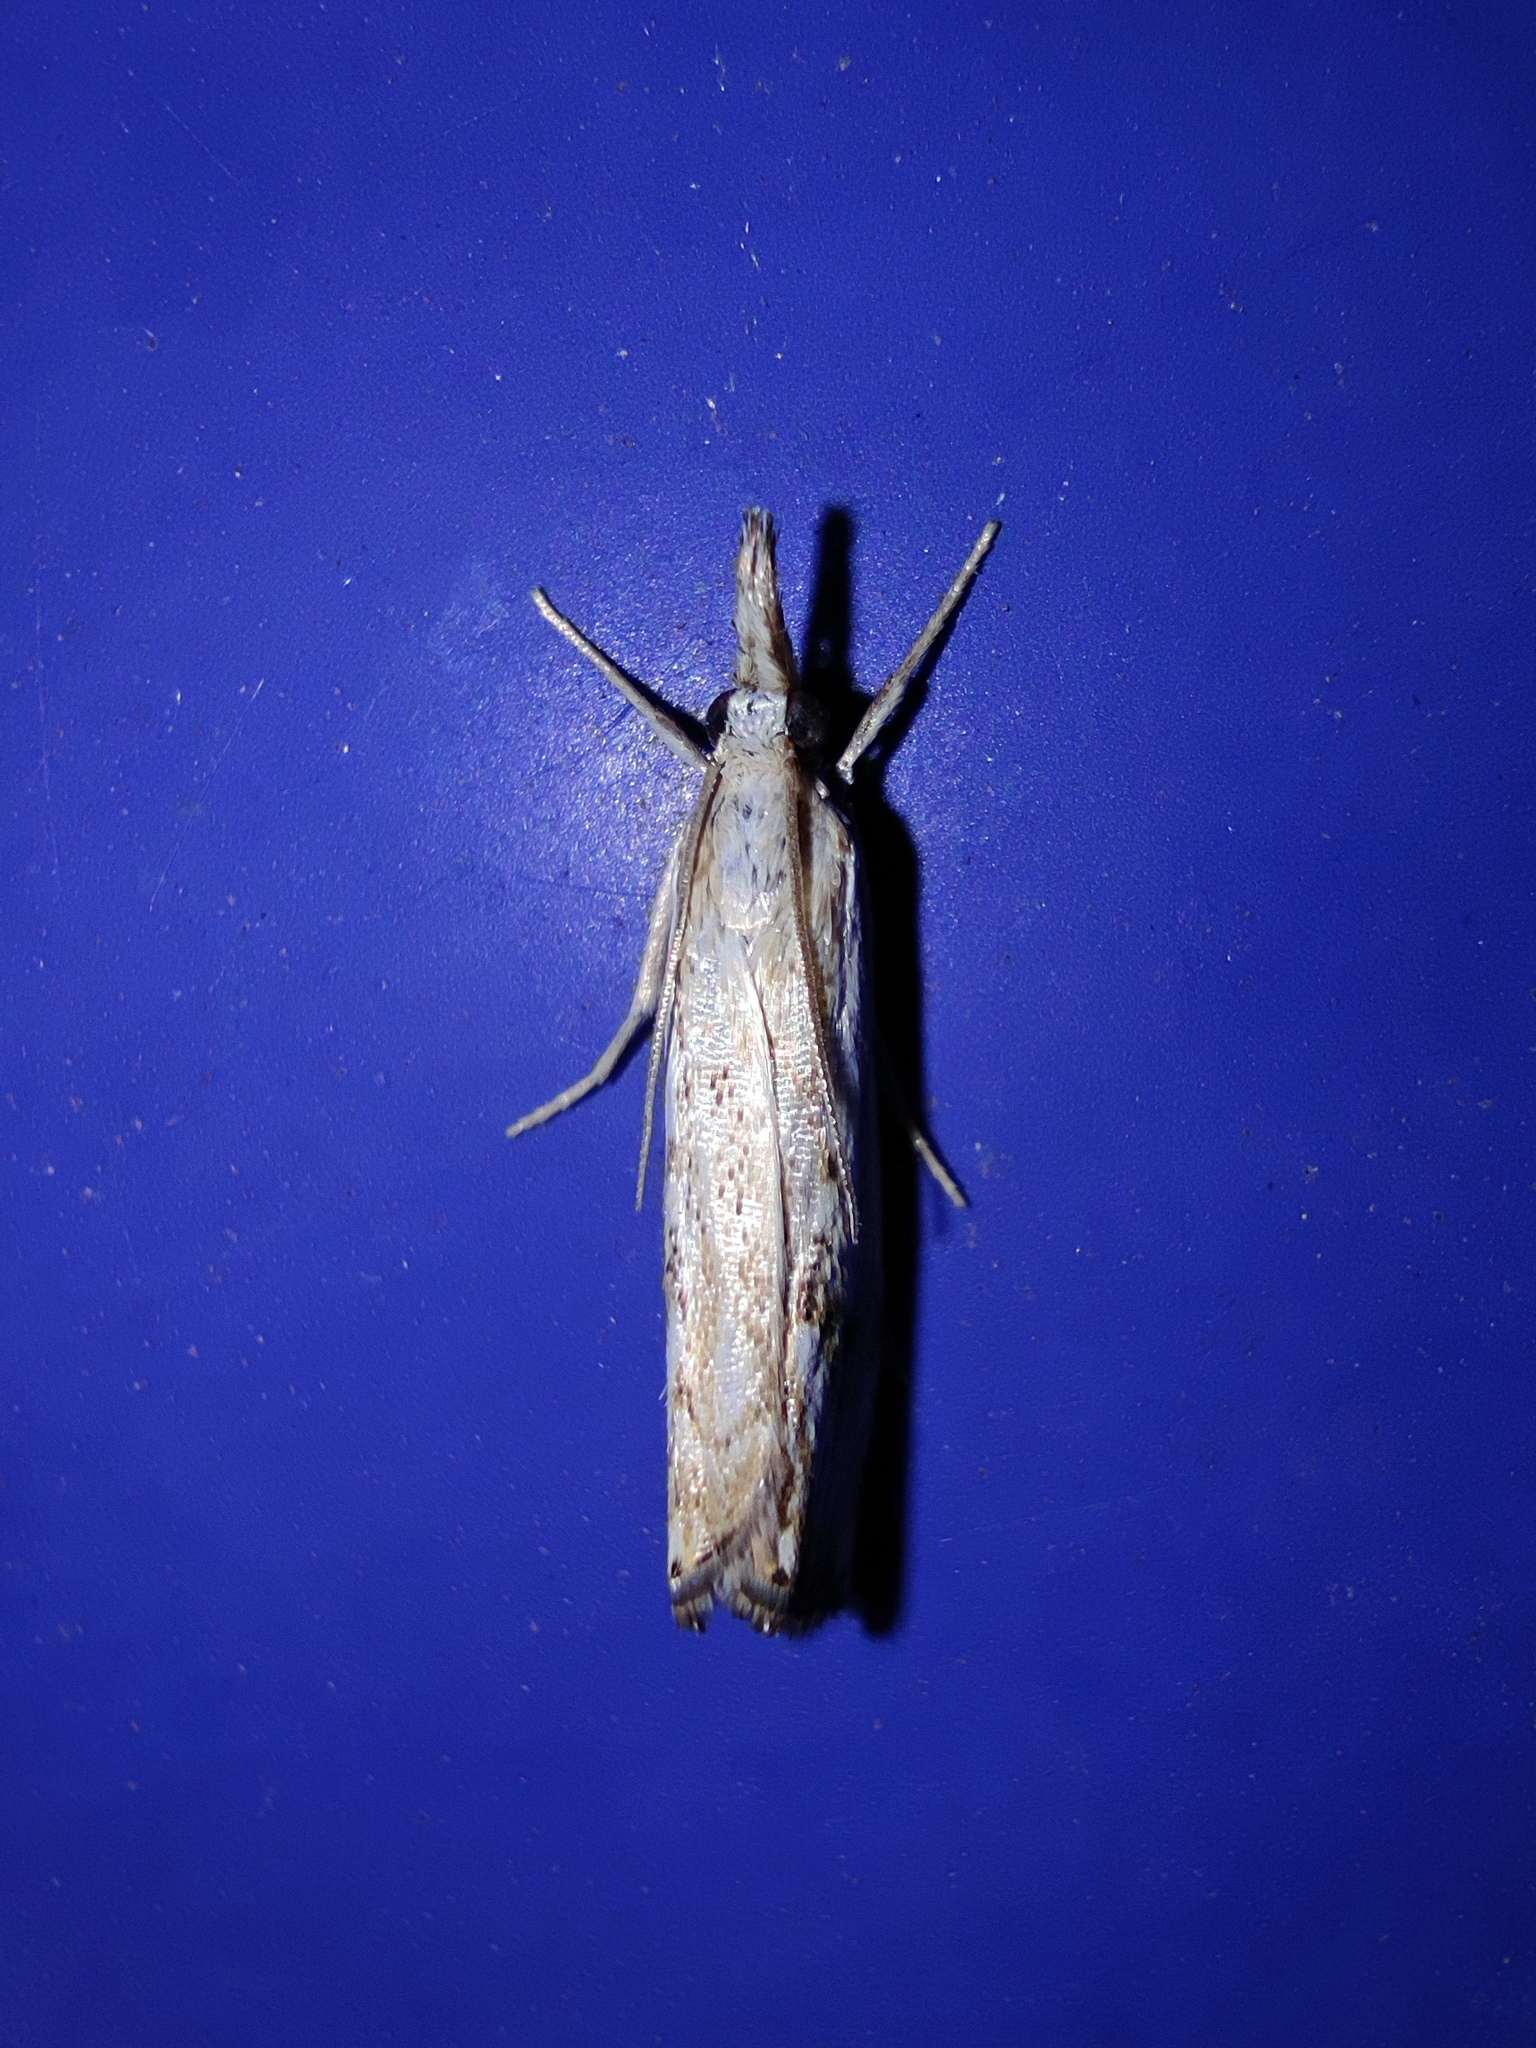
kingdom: Animalia
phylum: Arthropoda
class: Insecta
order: Lepidoptera
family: Crambidae
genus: Catoptria
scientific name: Catoptria falsella
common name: Chequered grass-veneer
